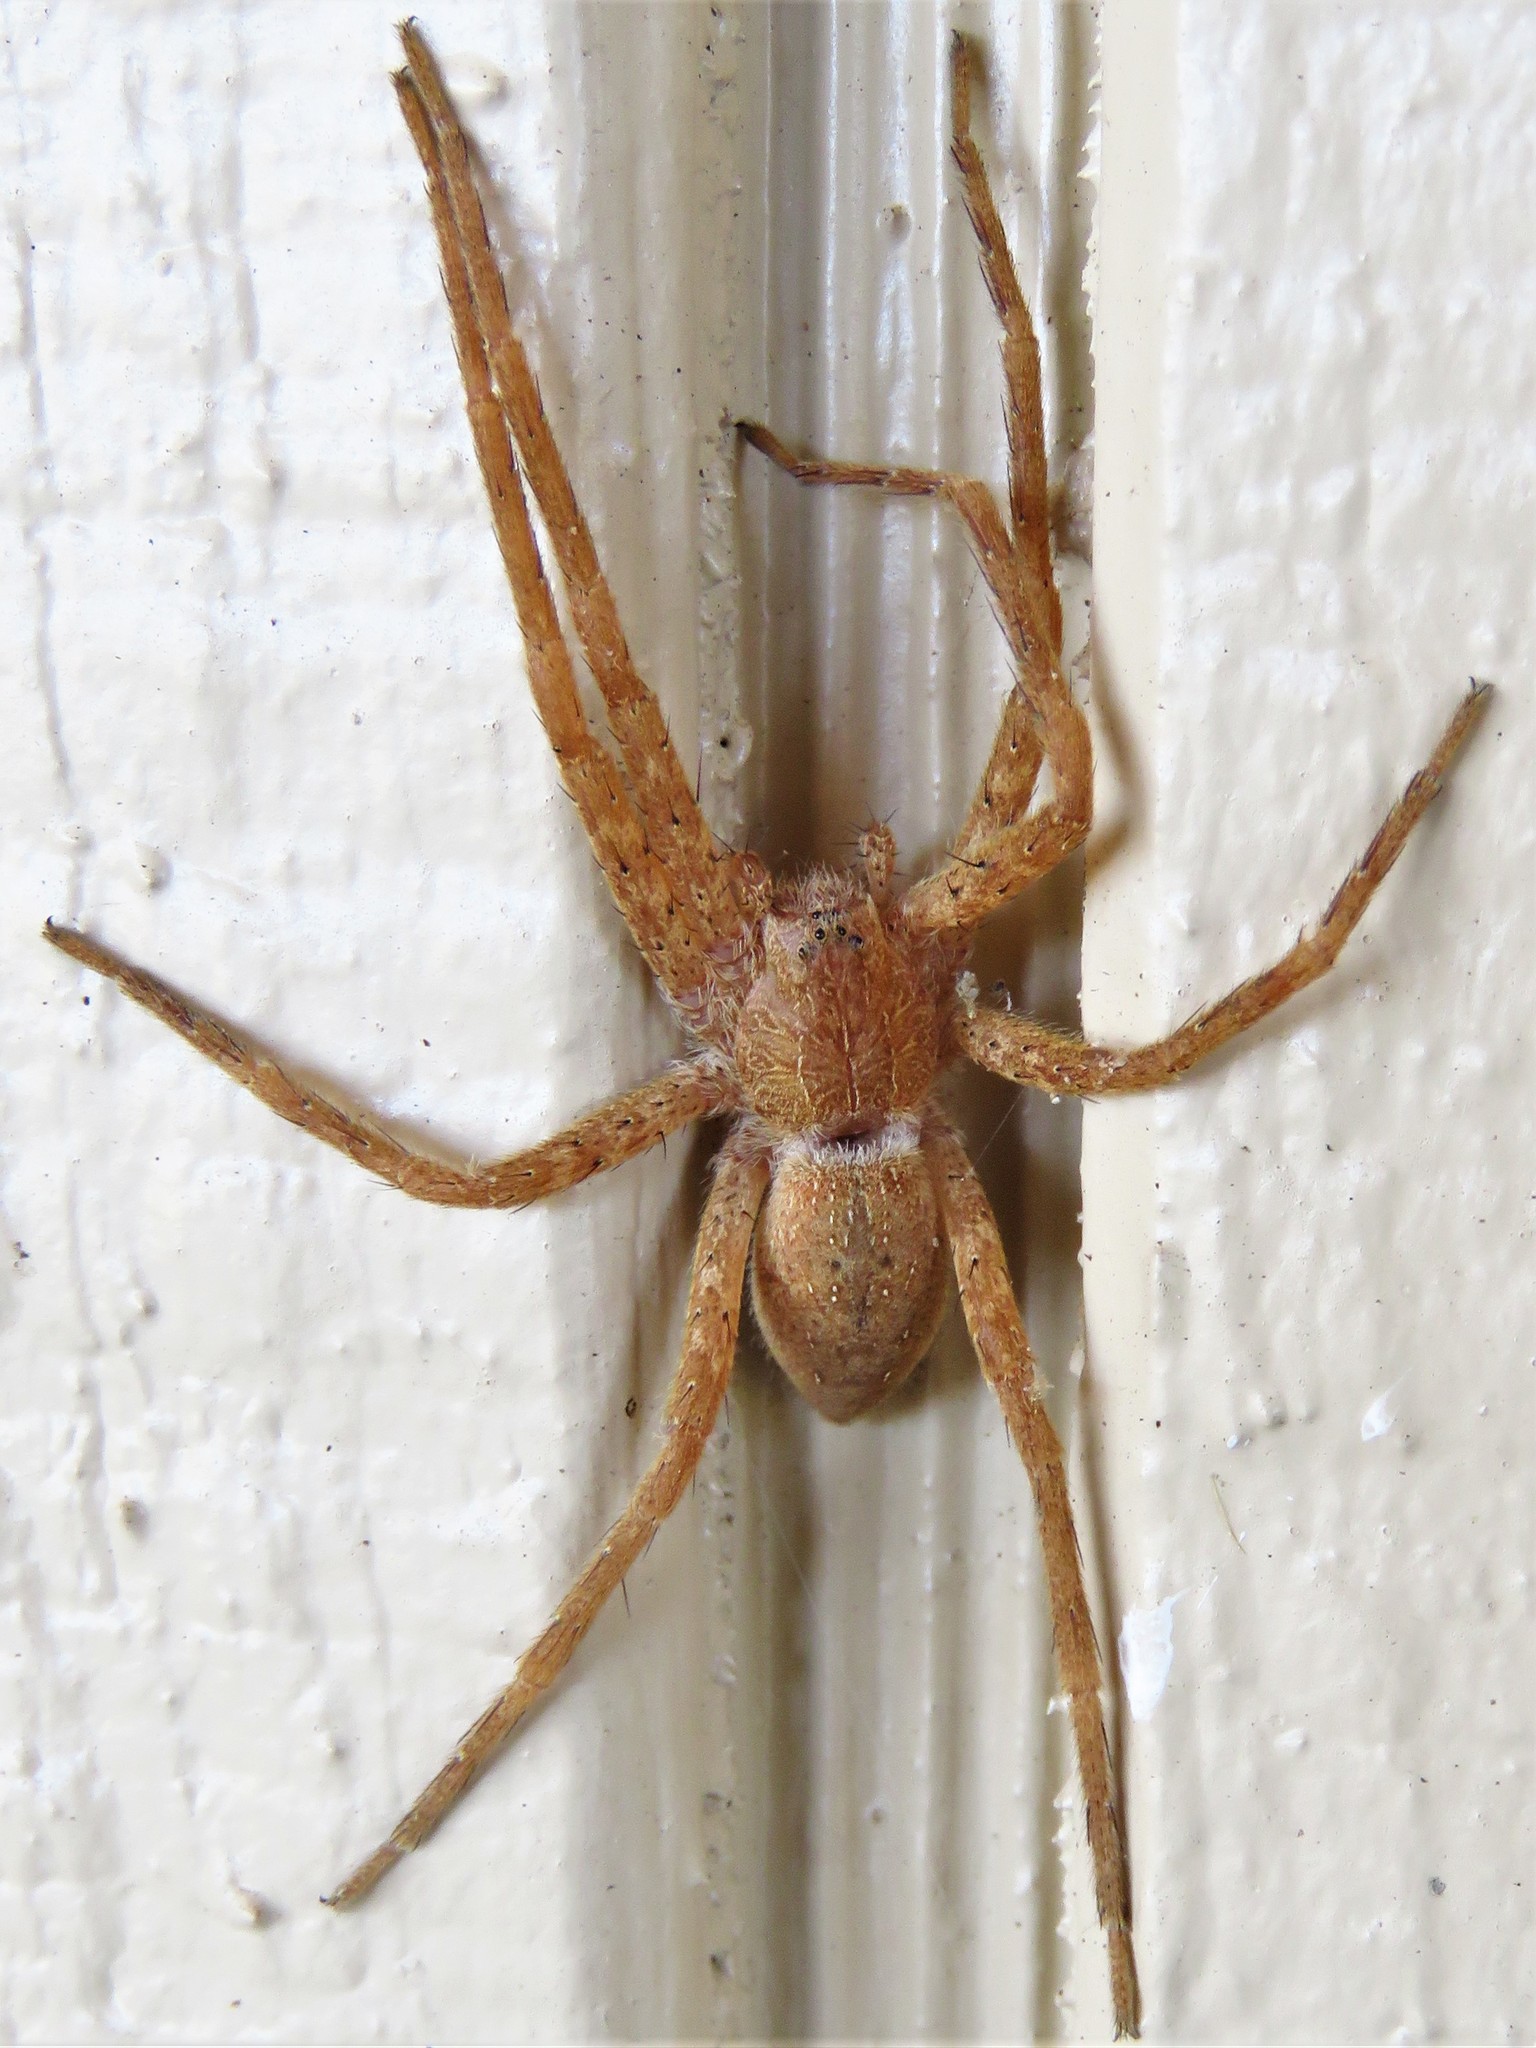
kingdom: Animalia
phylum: Arthropoda
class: Arachnida
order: Araneae
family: Pisauridae
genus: Pisaurina
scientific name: Pisaurina mira
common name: American nursery web spider
